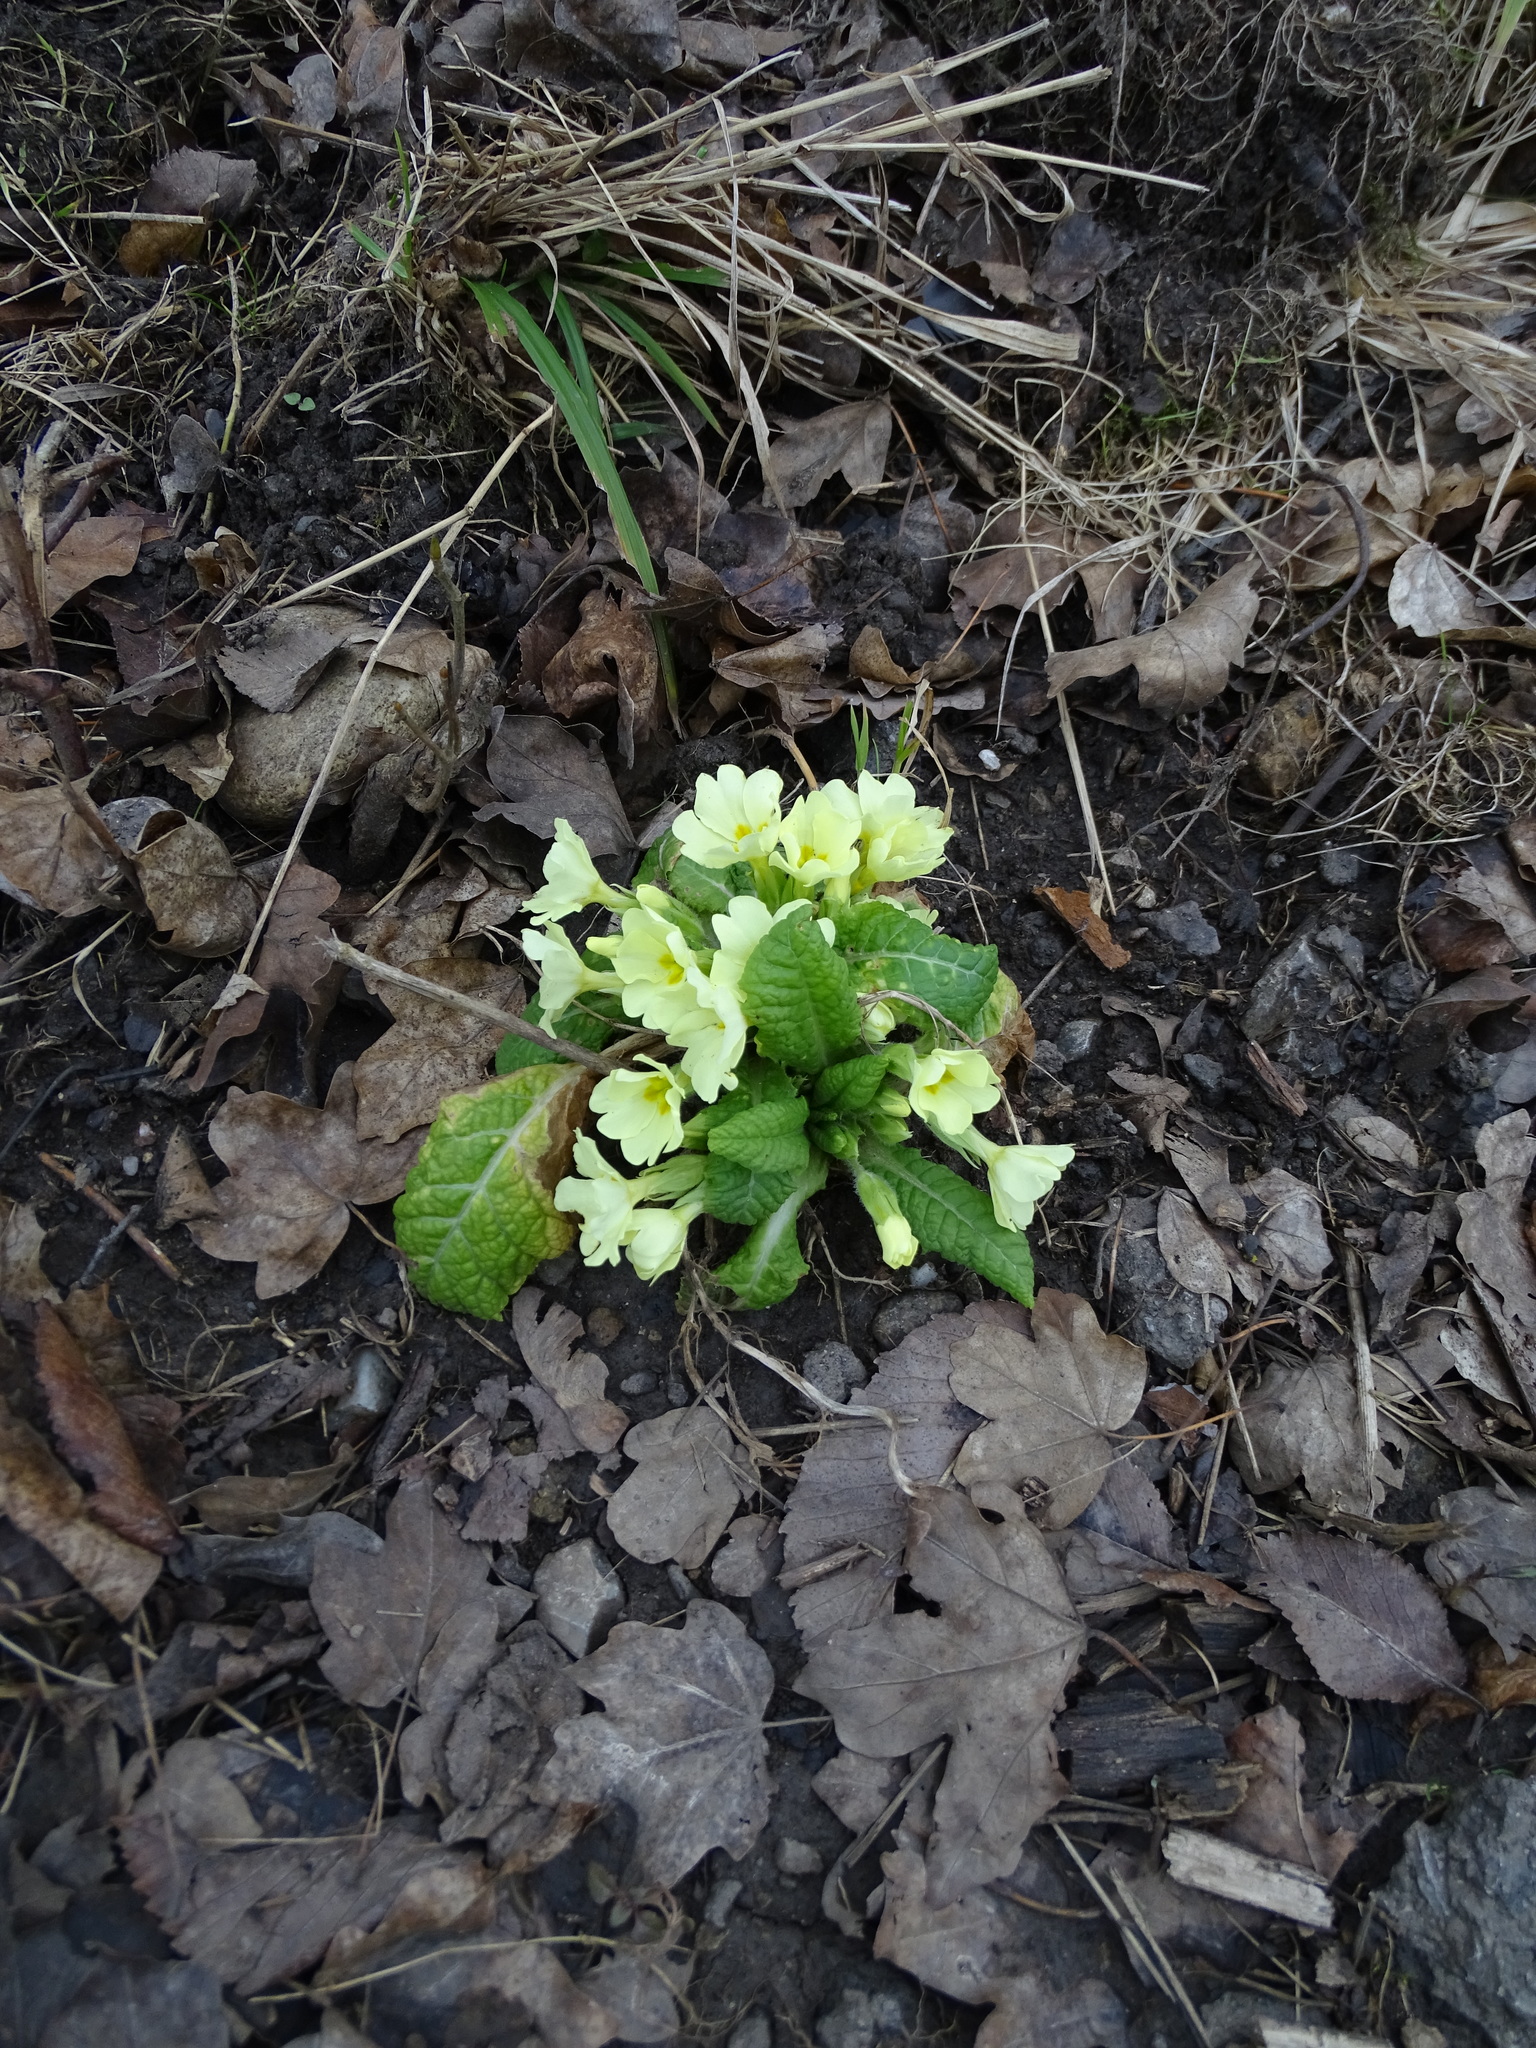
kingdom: Plantae
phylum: Tracheophyta
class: Magnoliopsida
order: Ericales
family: Primulaceae
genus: Primula
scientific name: Primula vulgaris
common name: Primrose
